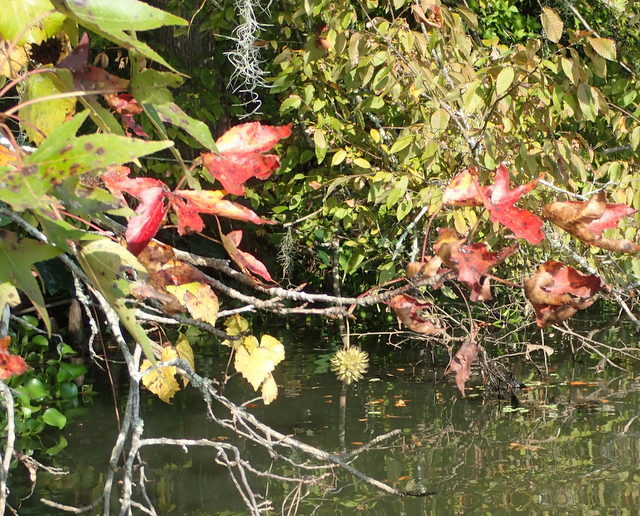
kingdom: Plantae
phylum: Tracheophyta
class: Magnoliopsida
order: Saxifragales
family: Altingiaceae
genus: Liquidambar
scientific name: Liquidambar styraciflua
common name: Sweet gum
